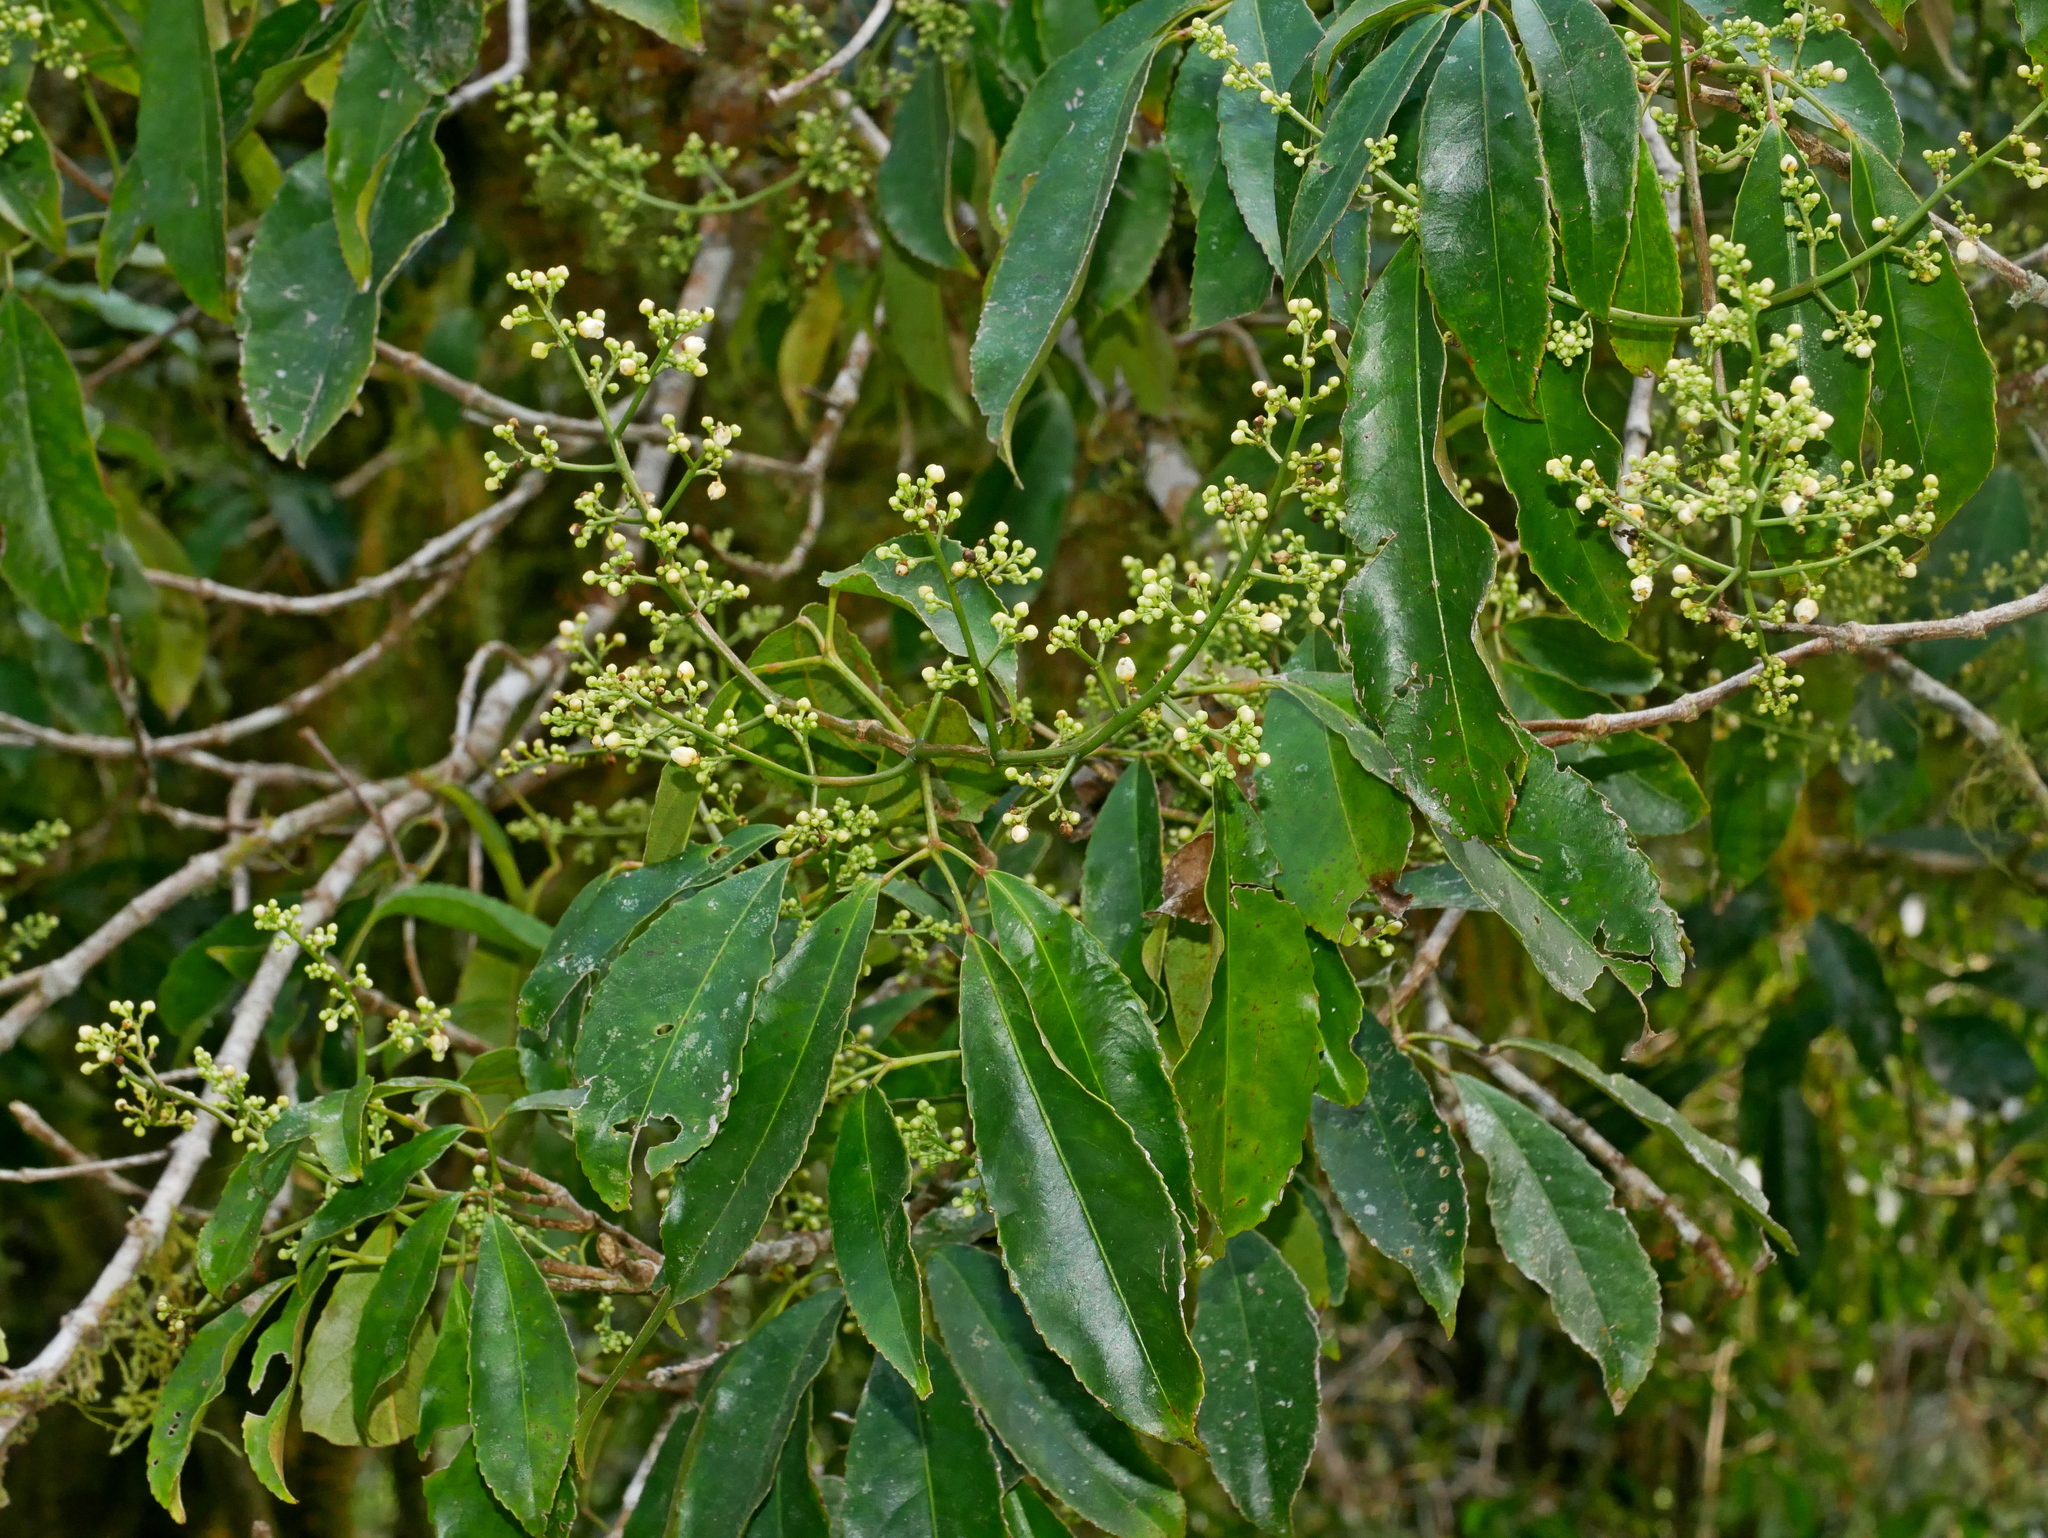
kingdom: Plantae
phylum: Tracheophyta
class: Magnoliopsida
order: Crossosomatales
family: Staphyleaceae
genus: Turpinia
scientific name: Turpinia ternata
